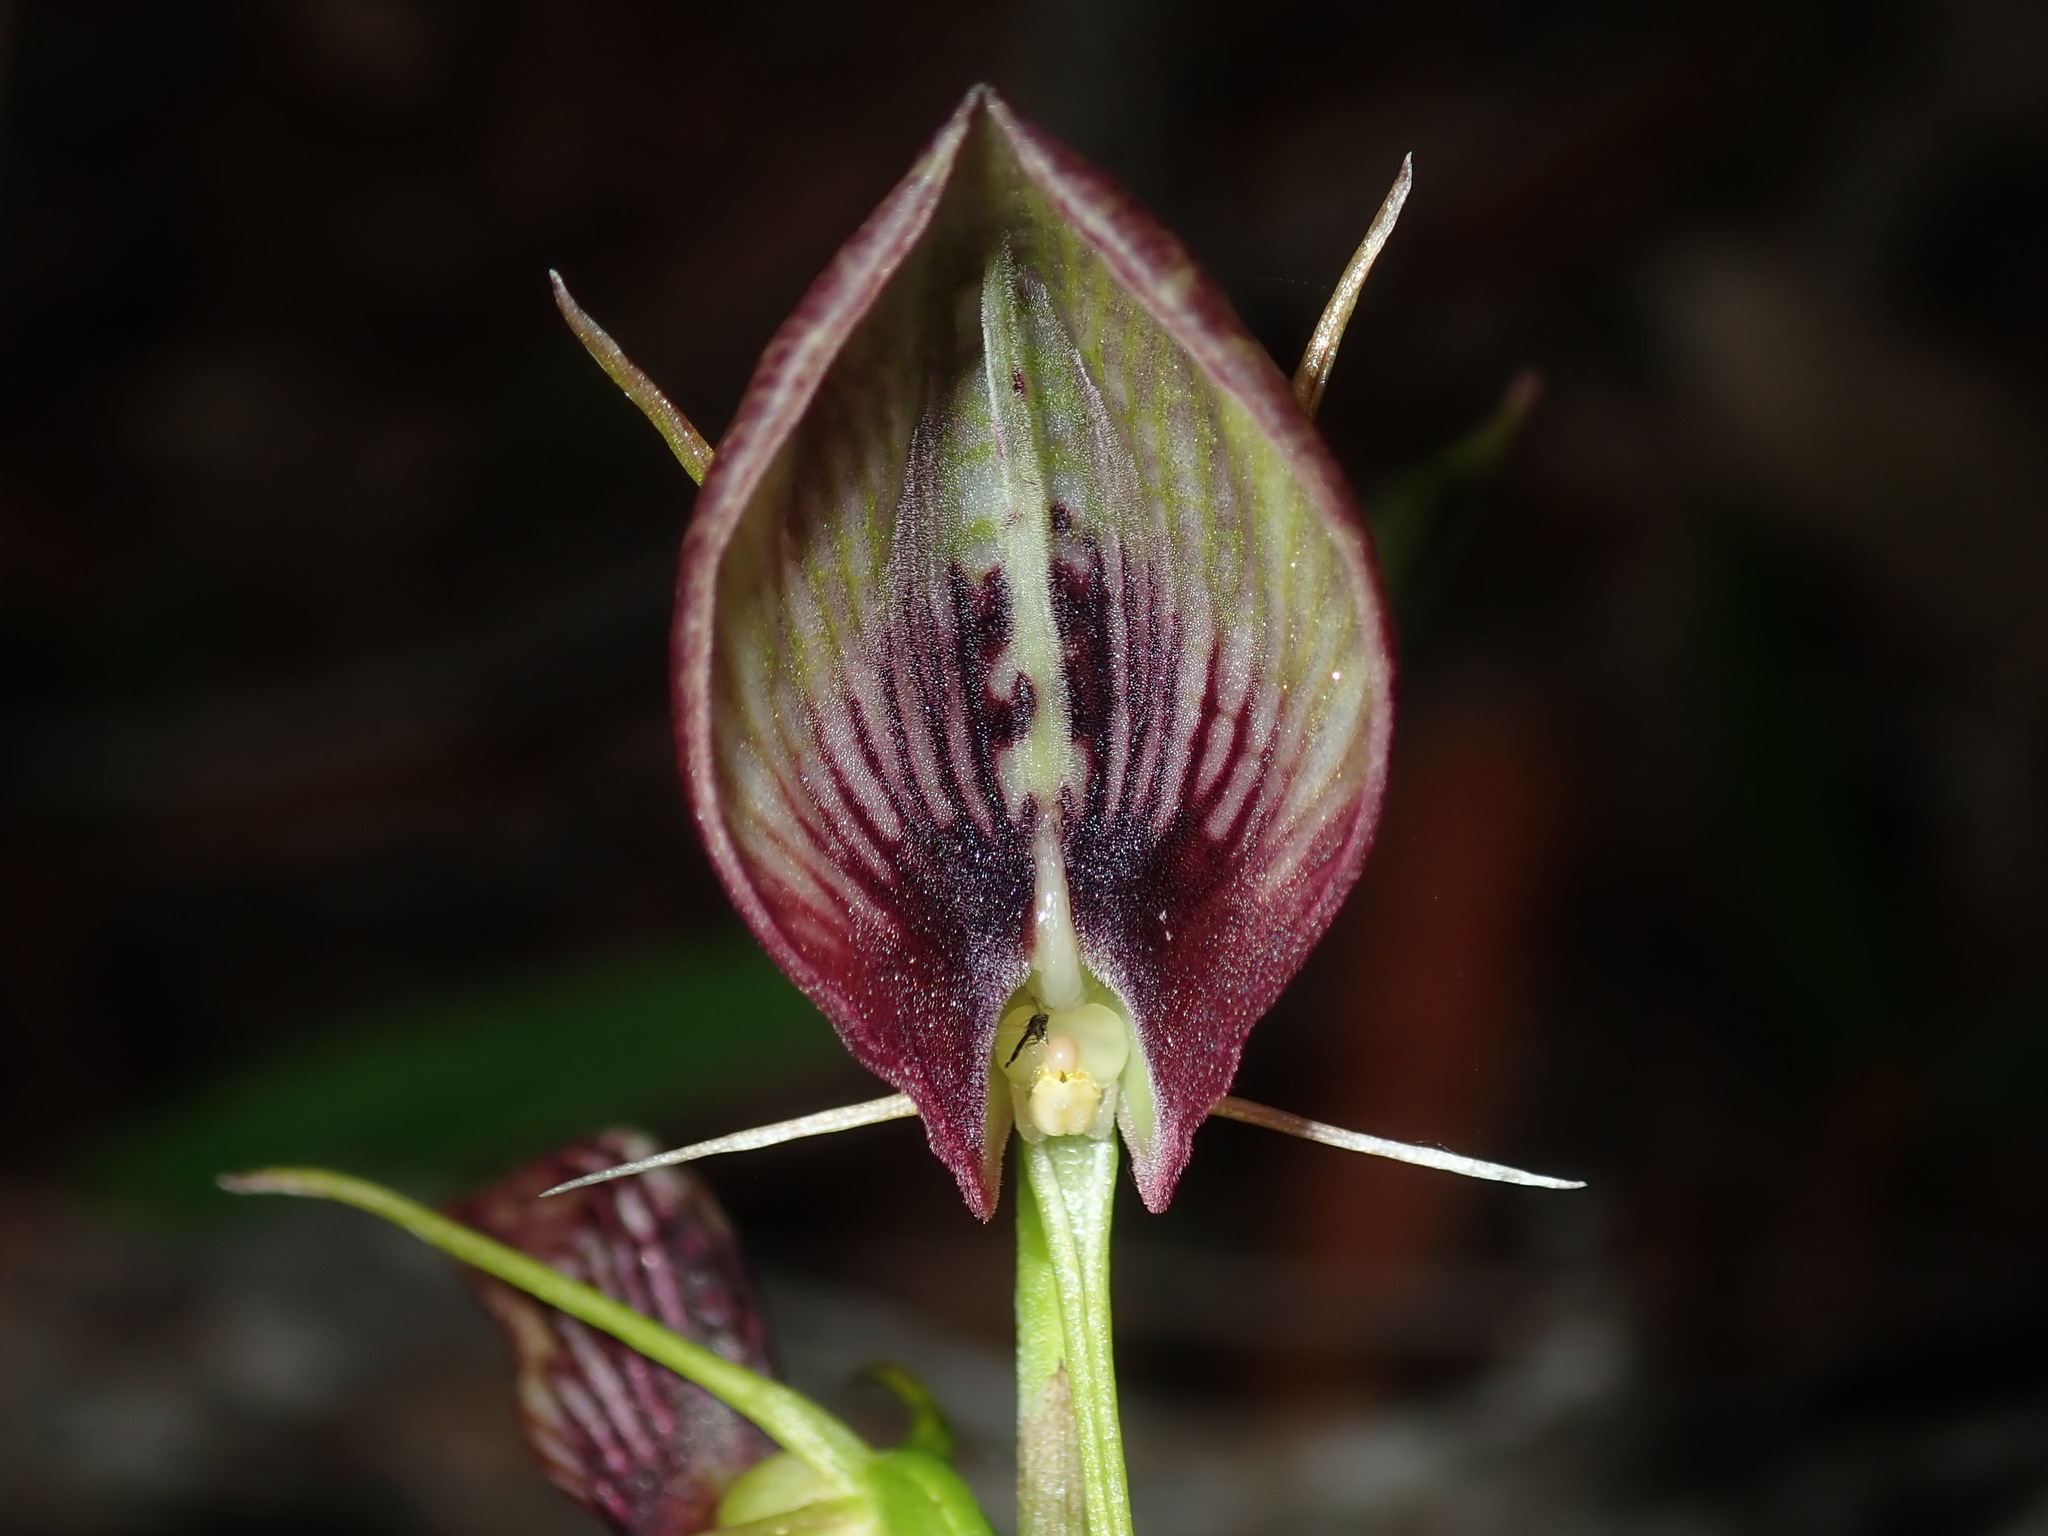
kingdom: Plantae
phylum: Tracheophyta
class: Liliopsida
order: Asparagales
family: Orchidaceae
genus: Cryptostylis
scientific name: Cryptostylis erecta
